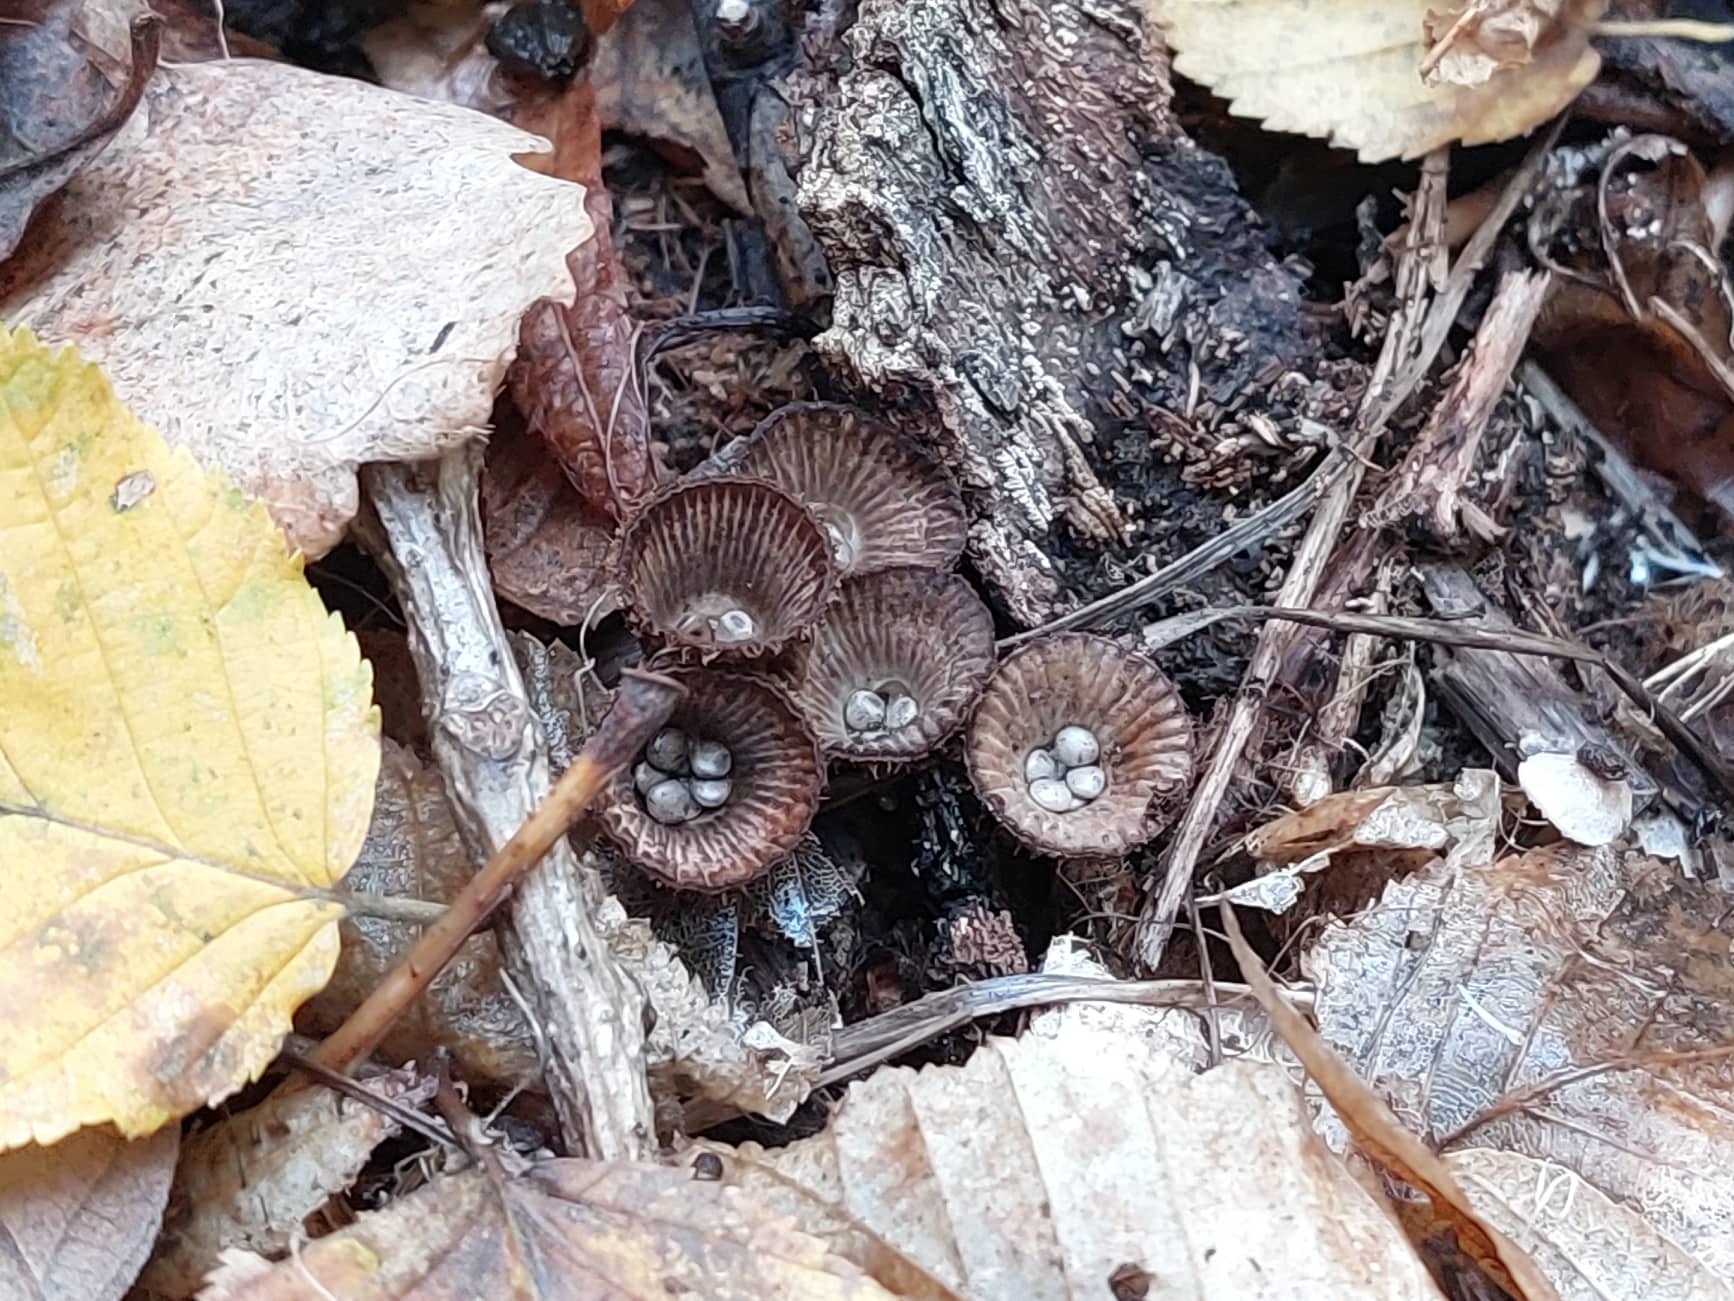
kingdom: Fungi
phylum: Basidiomycota
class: Agaricomycetes
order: Agaricales
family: Agaricaceae
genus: Cyathus
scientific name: Cyathus striatus
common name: Fluted bird's nest
